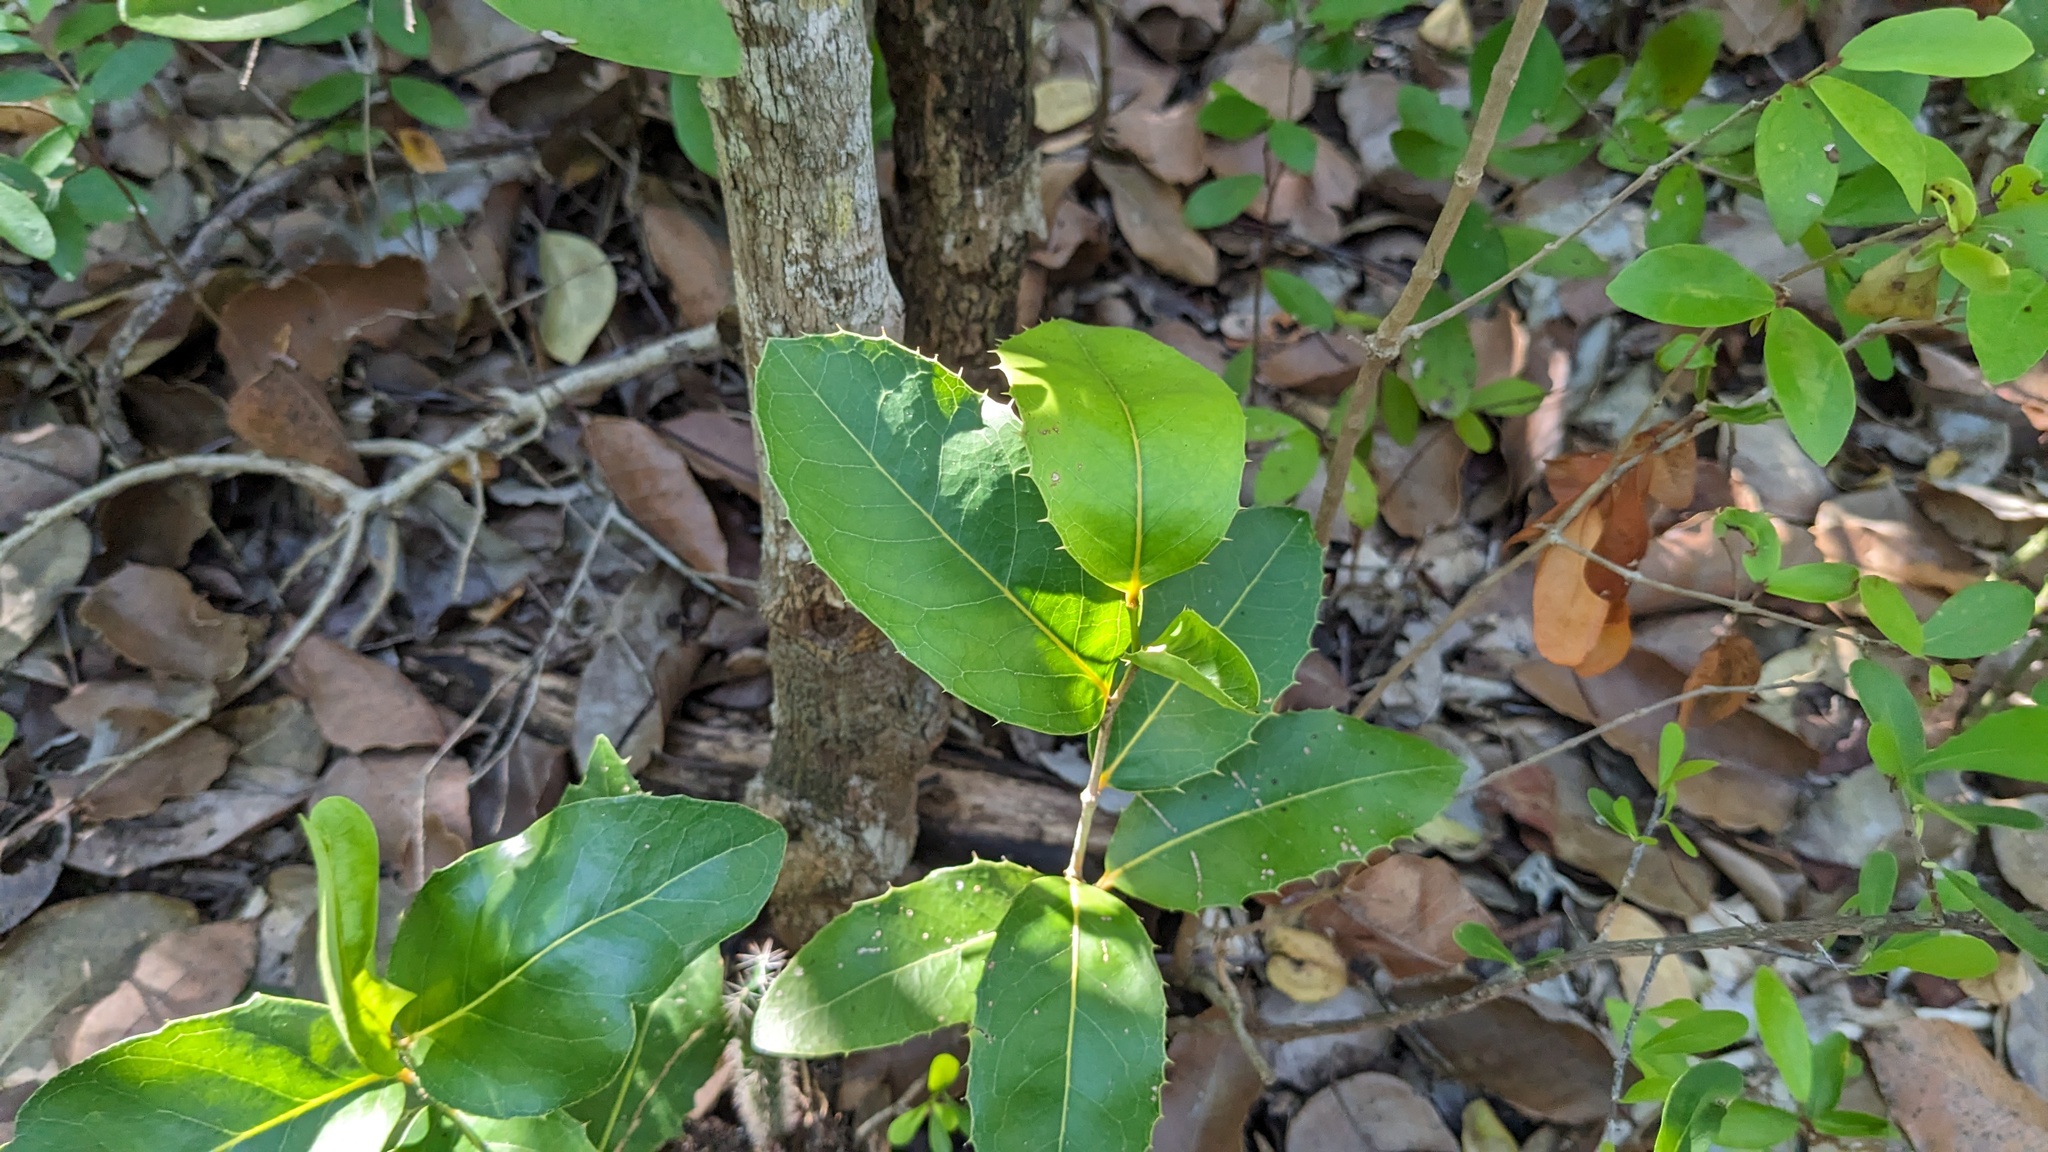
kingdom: Plantae
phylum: Tracheophyta
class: Magnoliopsida
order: Malpighiales
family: Putranjivaceae
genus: Drypetes
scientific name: Drypetes diversifolia
